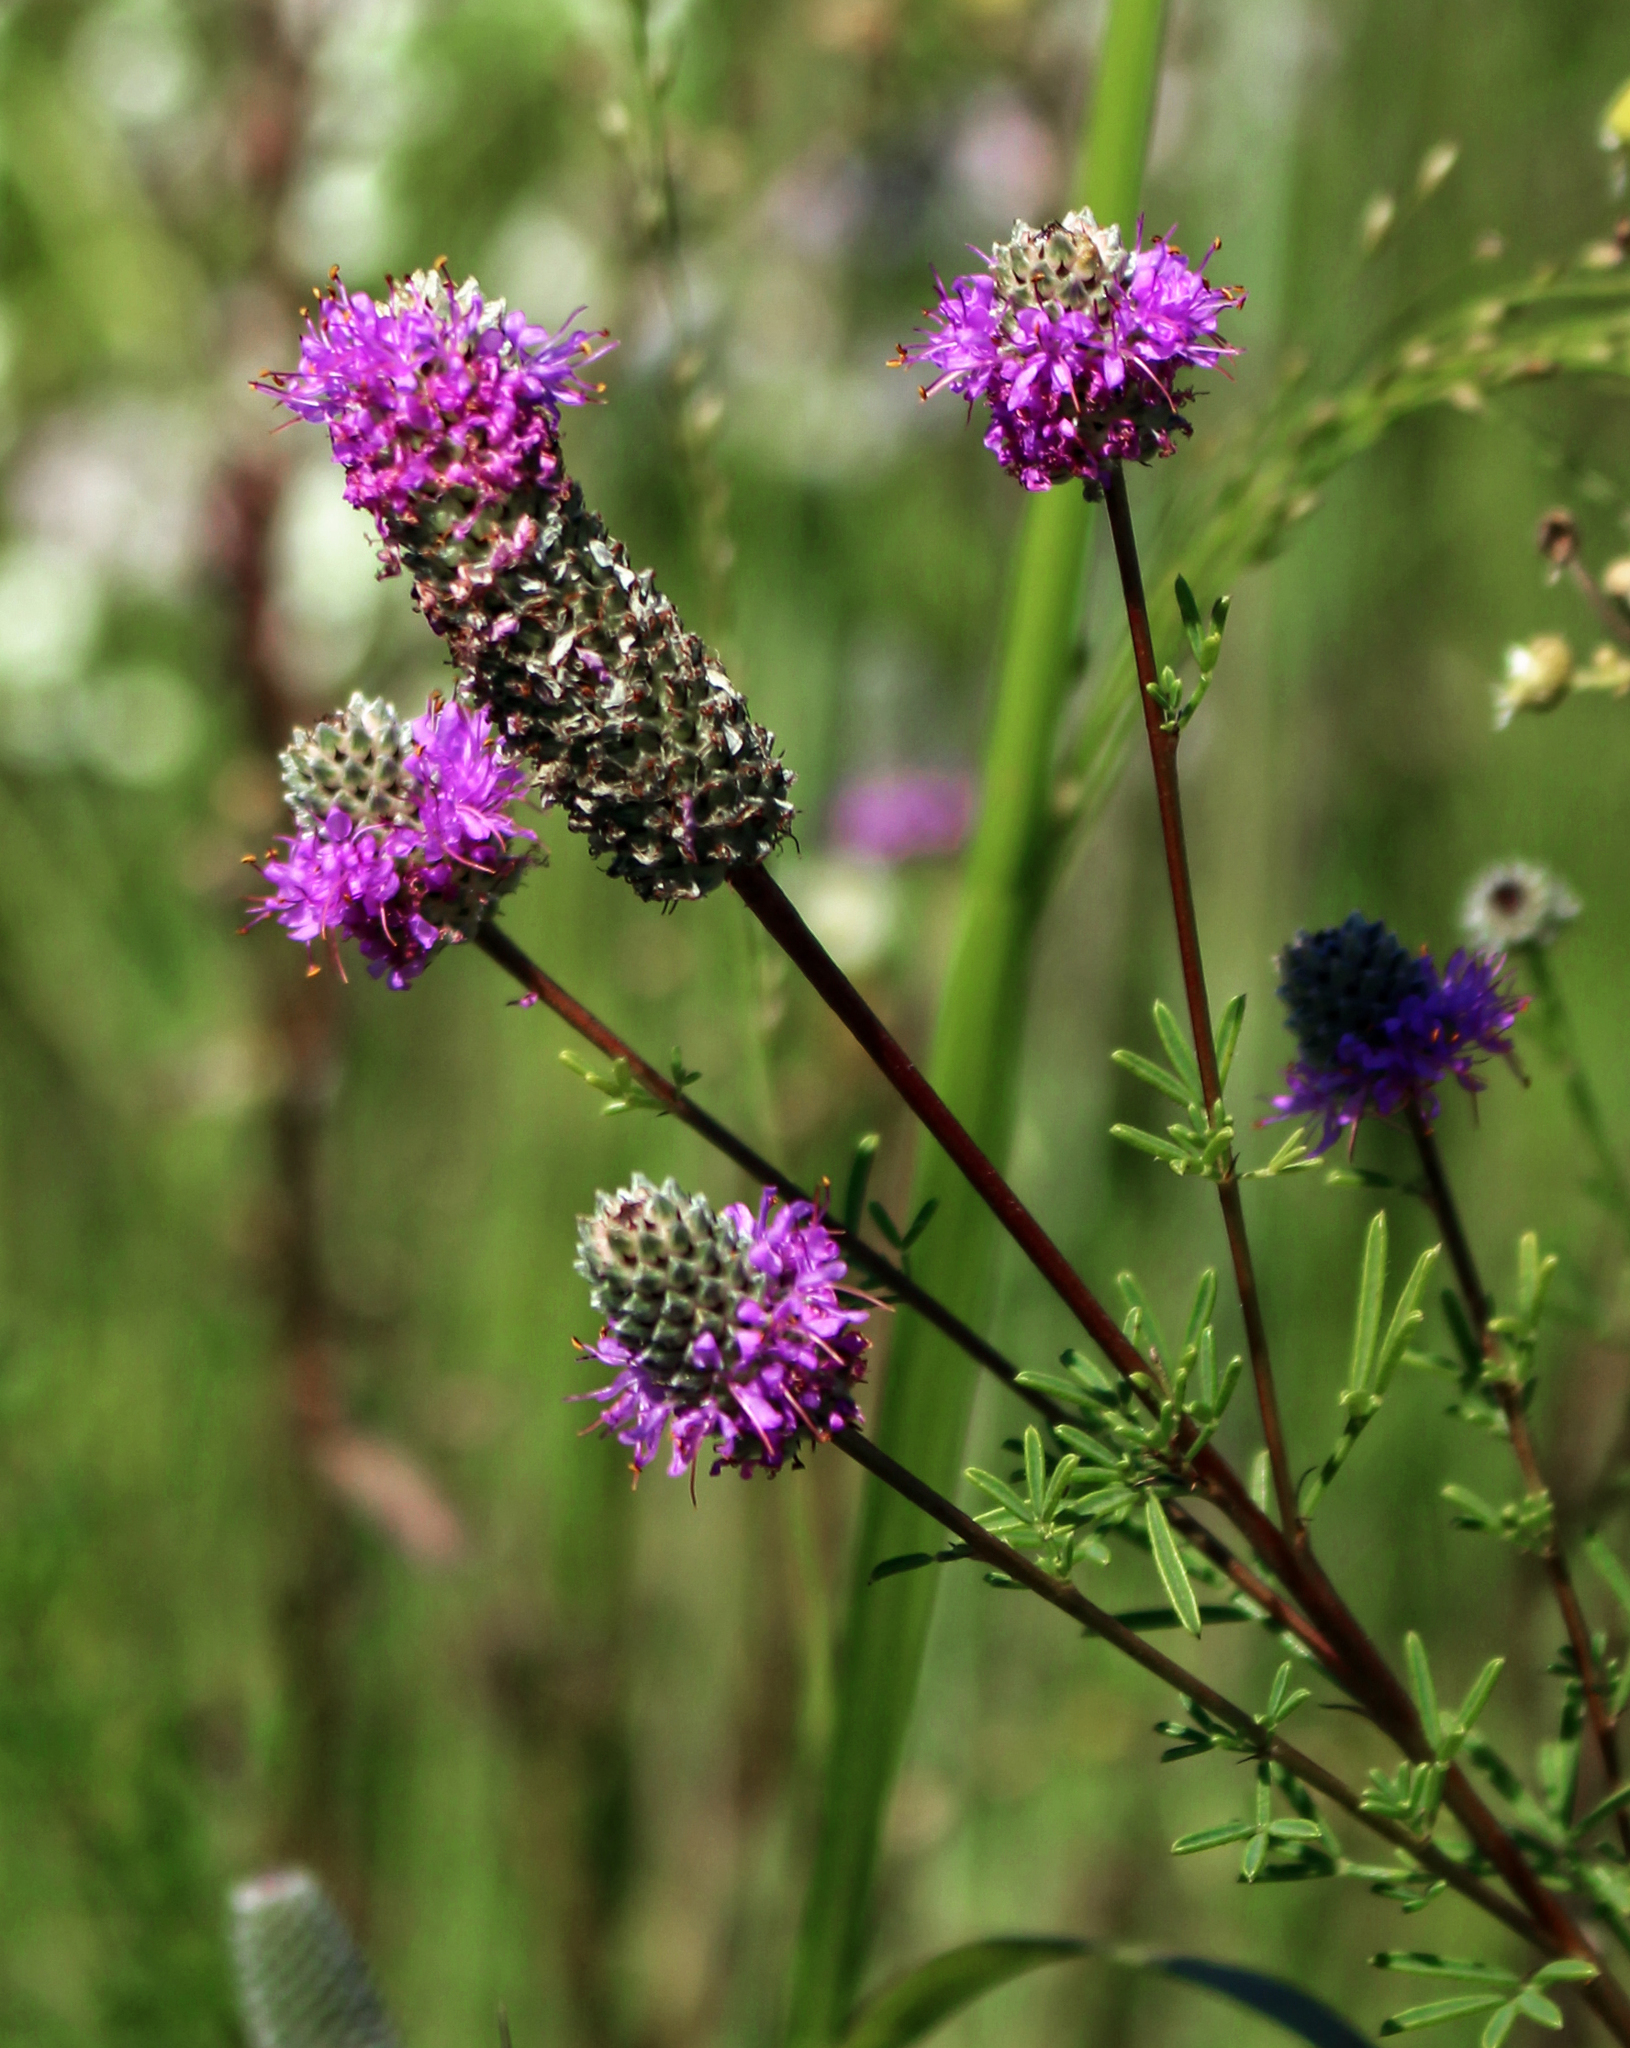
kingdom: Plantae
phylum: Tracheophyta
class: Magnoliopsida
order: Fabales
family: Fabaceae
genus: Dalea
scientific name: Dalea purpurea
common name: Purple prairie-clover
